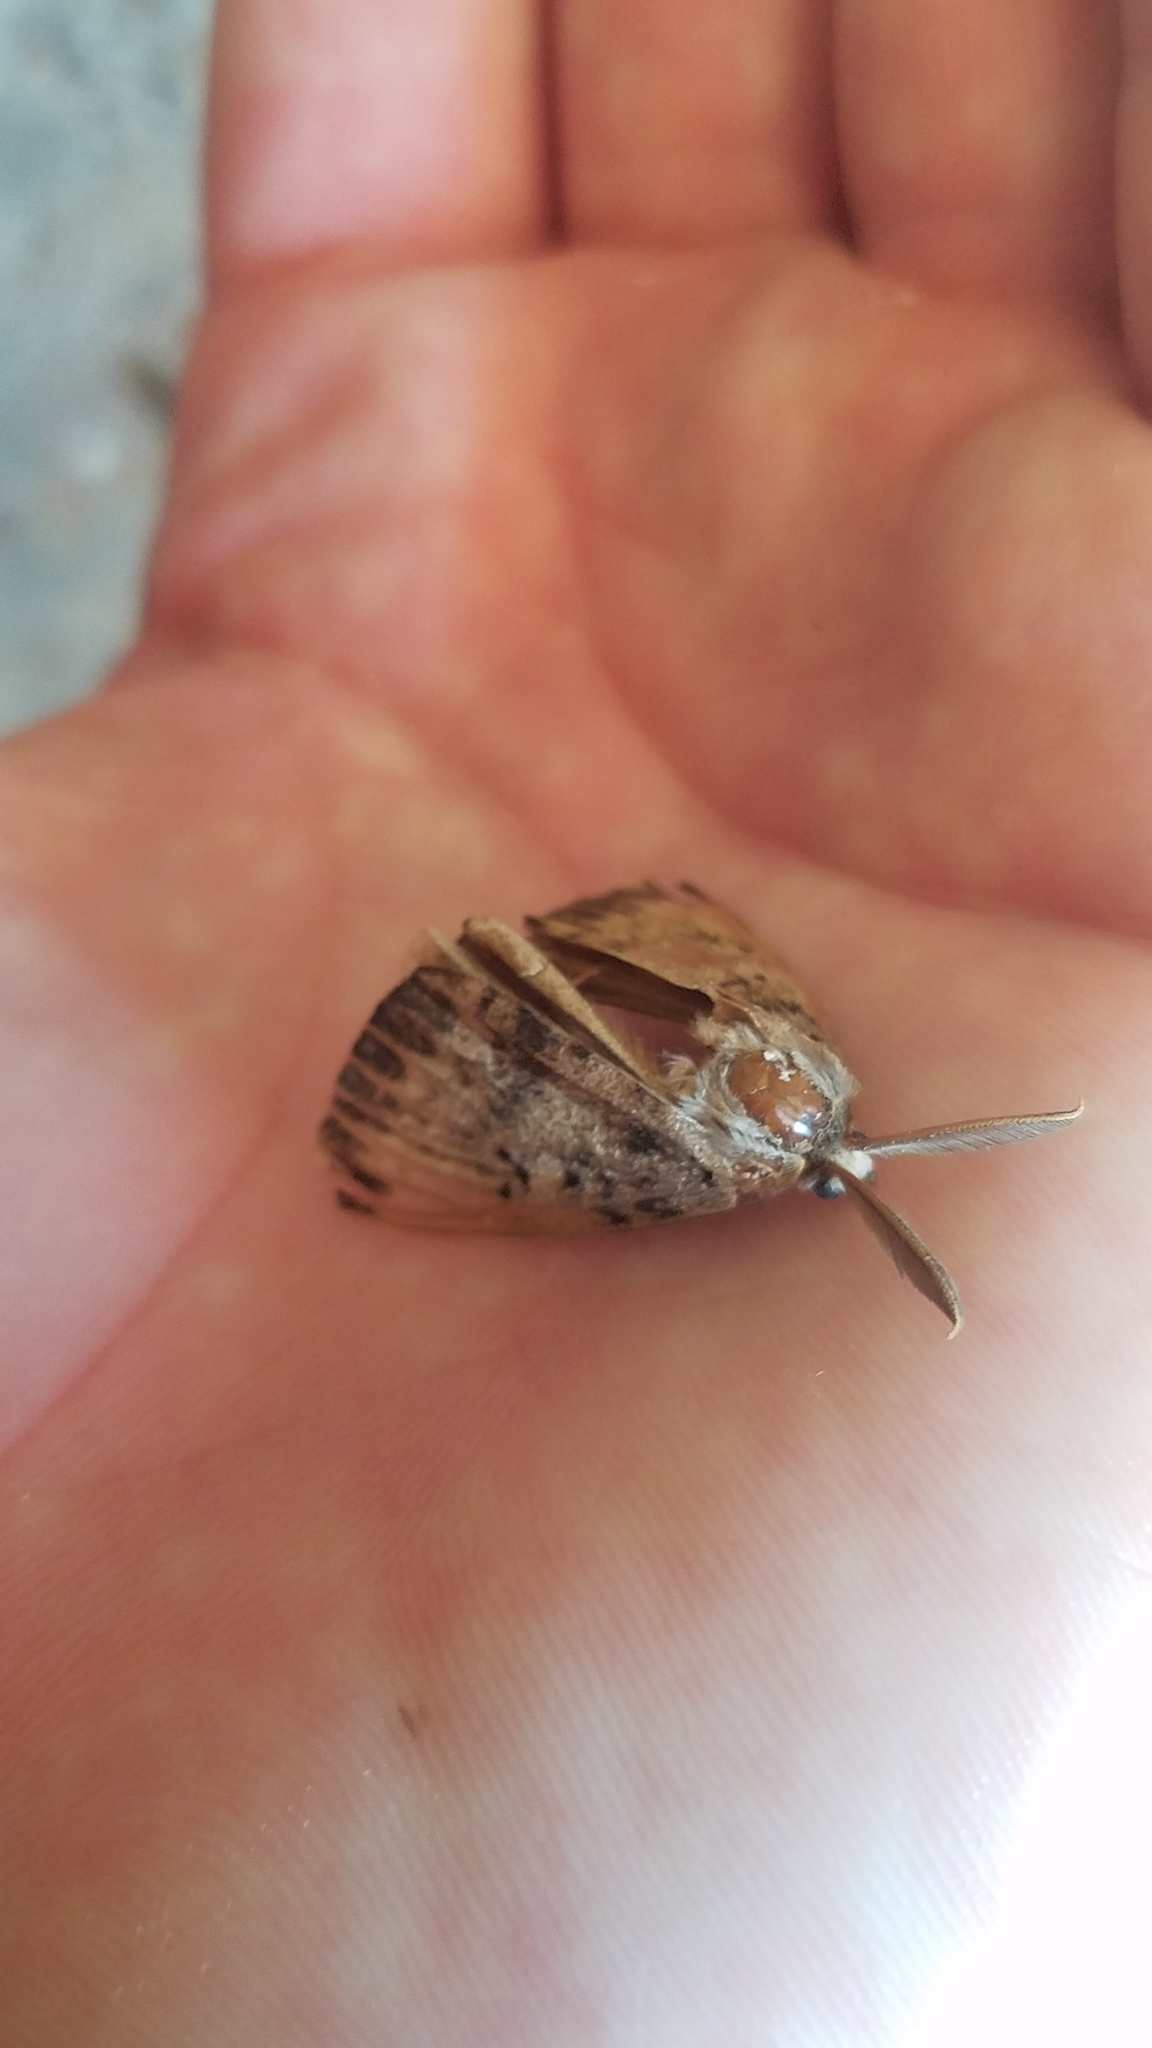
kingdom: Animalia
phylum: Arthropoda
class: Insecta
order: Lepidoptera
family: Erebidae
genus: Lymantria
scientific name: Lymantria dispar
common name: Gypsy moth
